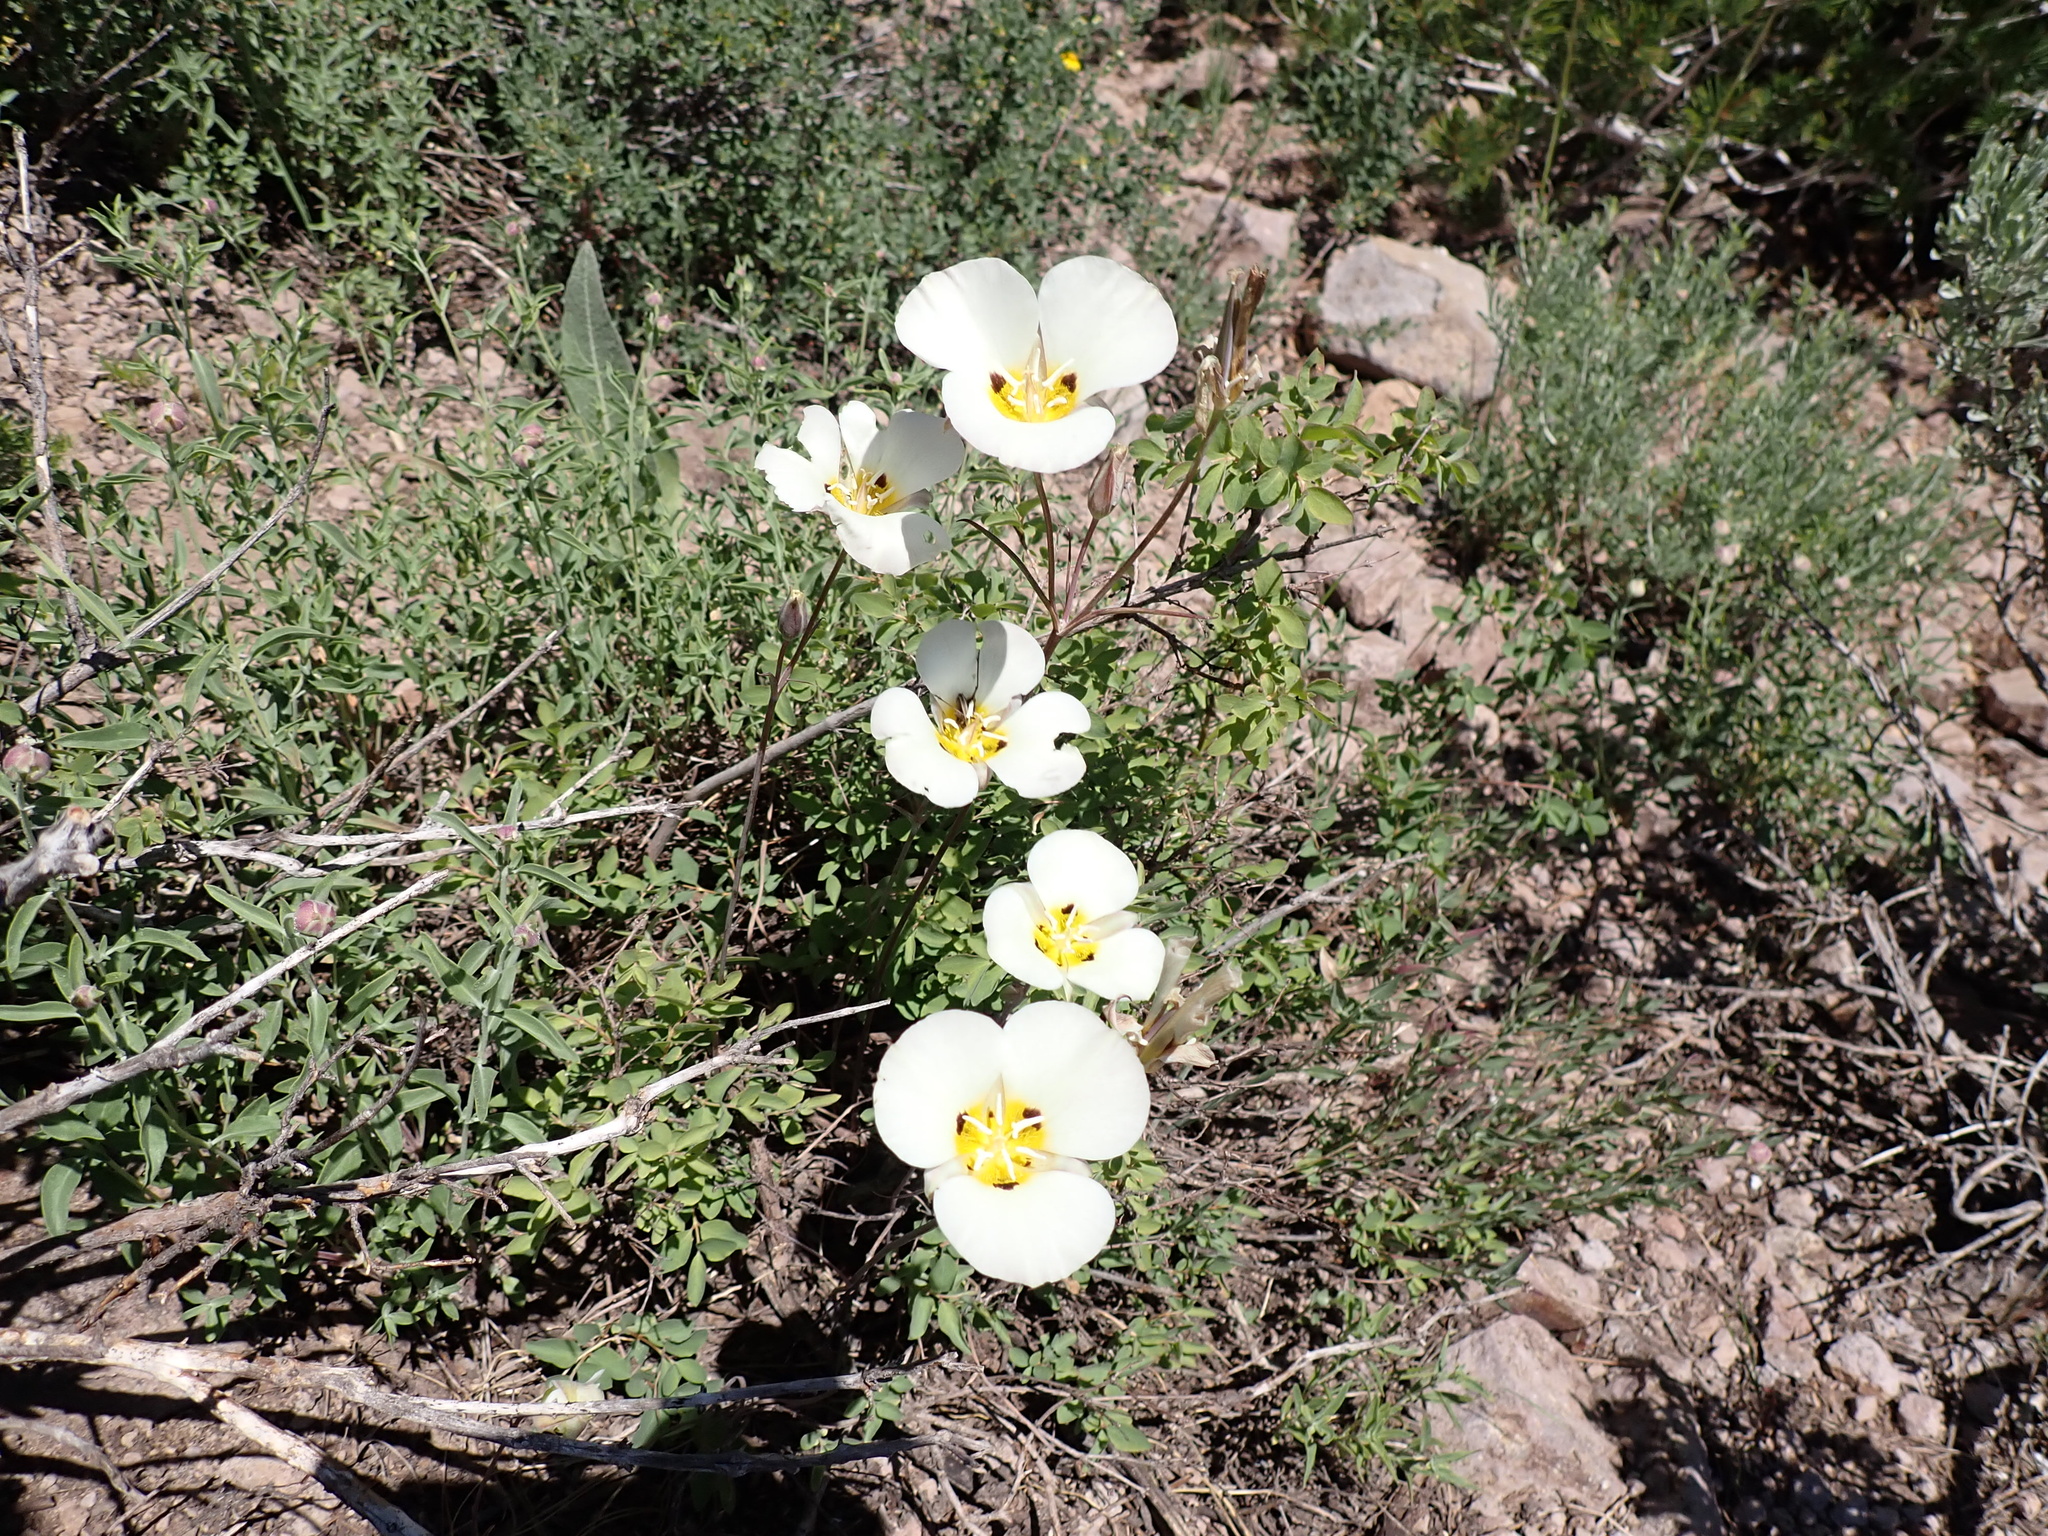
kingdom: Plantae
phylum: Tracheophyta
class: Liliopsida
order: Liliales
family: Liliaceae
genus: Calochortus
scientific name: Calochortus leichtlinii
